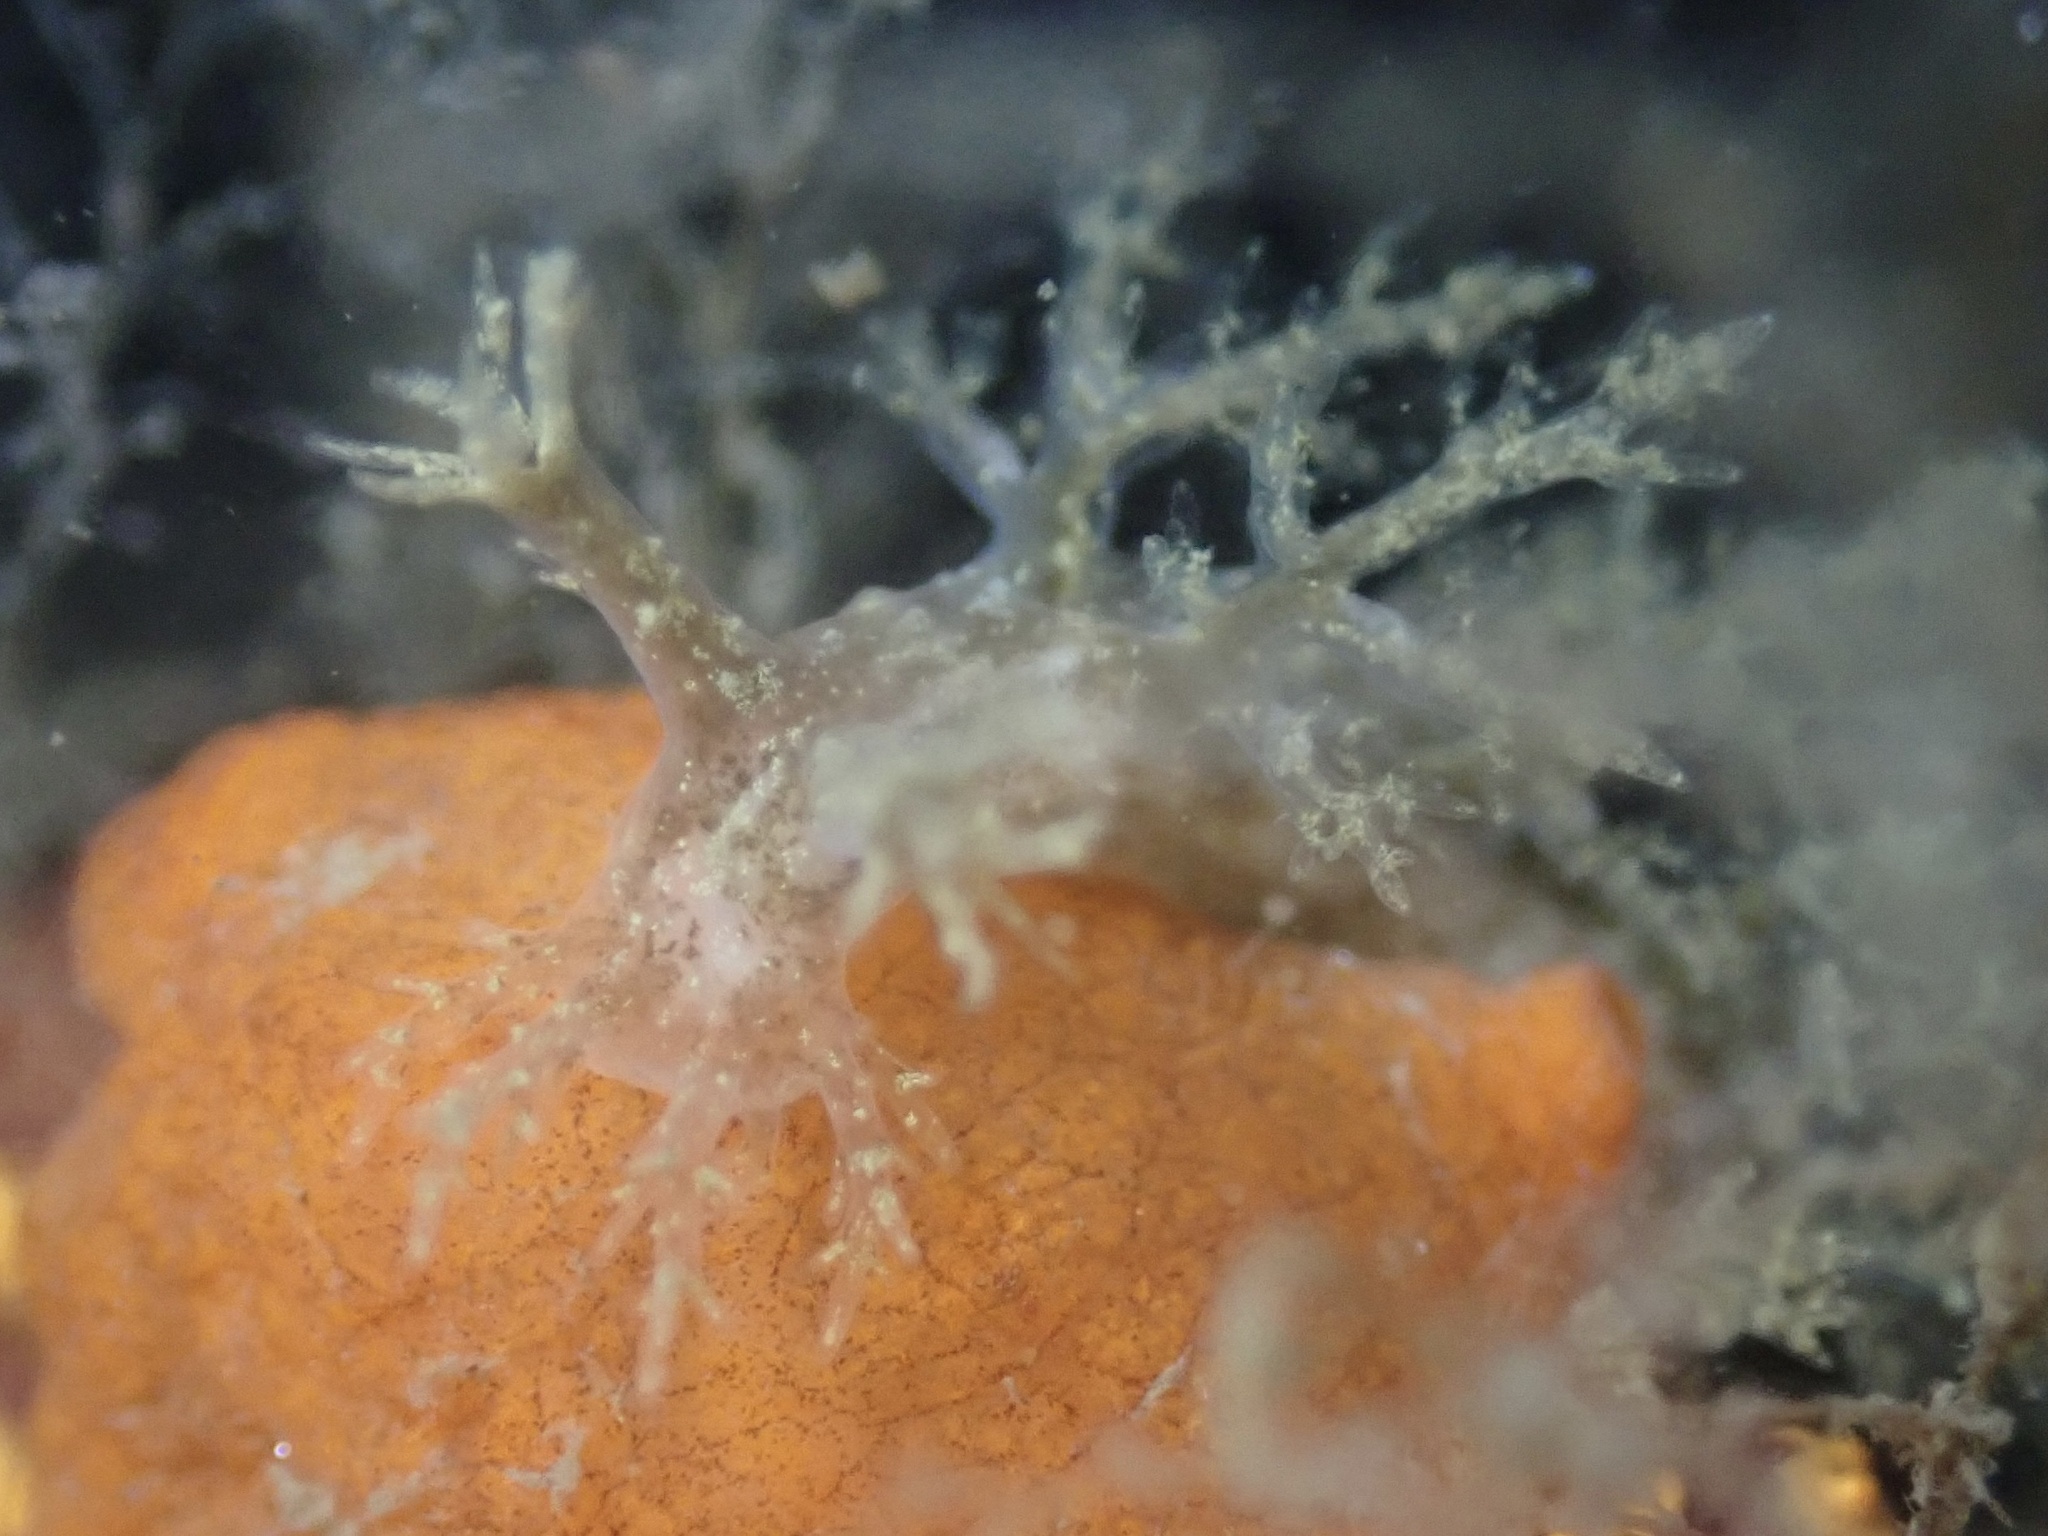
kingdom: Animalia
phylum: Mollusca
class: Gastropoda
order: Nudibranchia
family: Dendronotidae
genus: Dendronotus
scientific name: Dendronotus venustus
